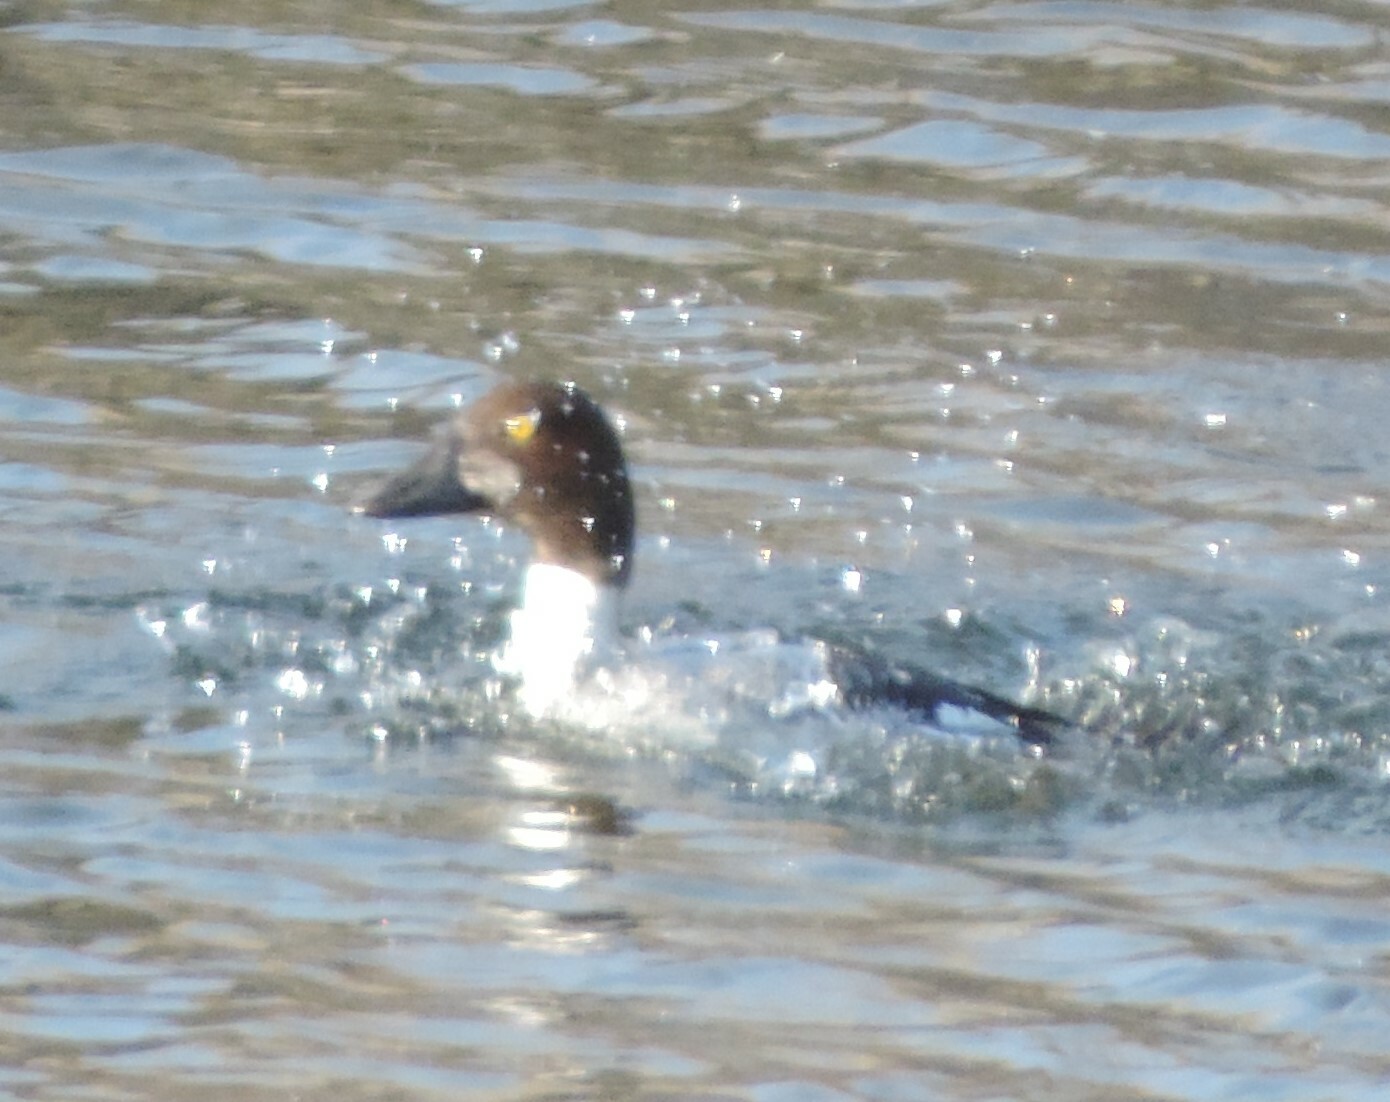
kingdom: Animalia
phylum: Chordata
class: Aves
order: Anseriformes
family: Anatidae
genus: Bucephala
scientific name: Bucephala clangula
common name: Common goldeneye
